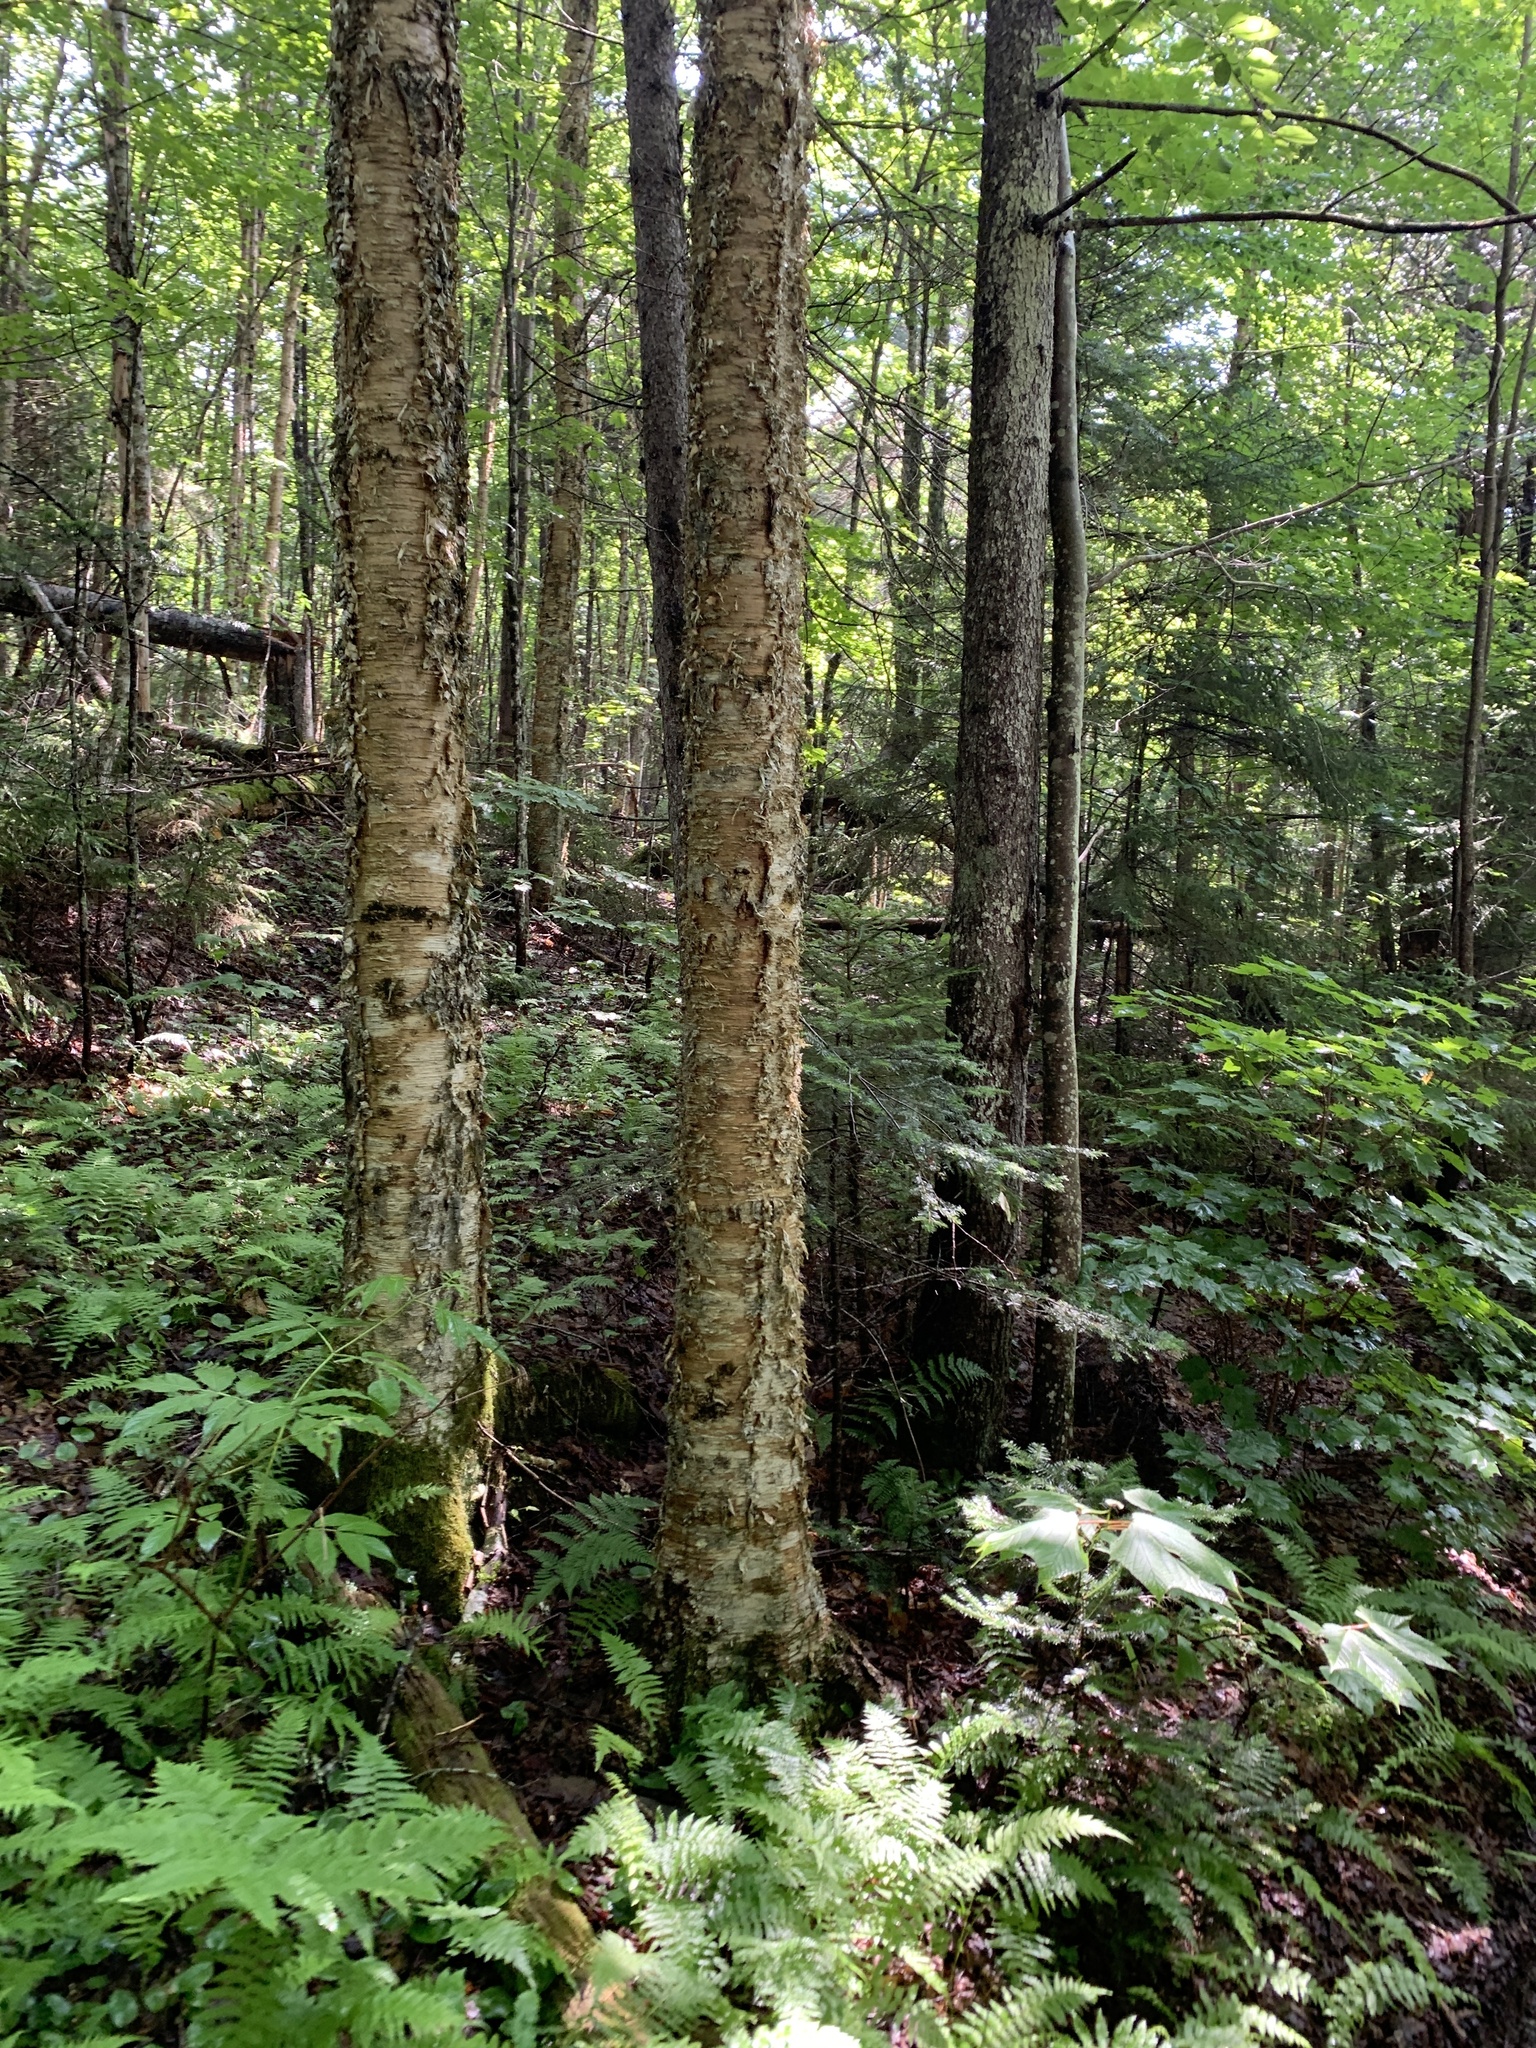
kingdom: Plantae
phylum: Tracheophyta
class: Magnoliopsida
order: Fagales
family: Betulaceae
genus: Betula
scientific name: Betula alleghaniensis
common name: Yellow birch
